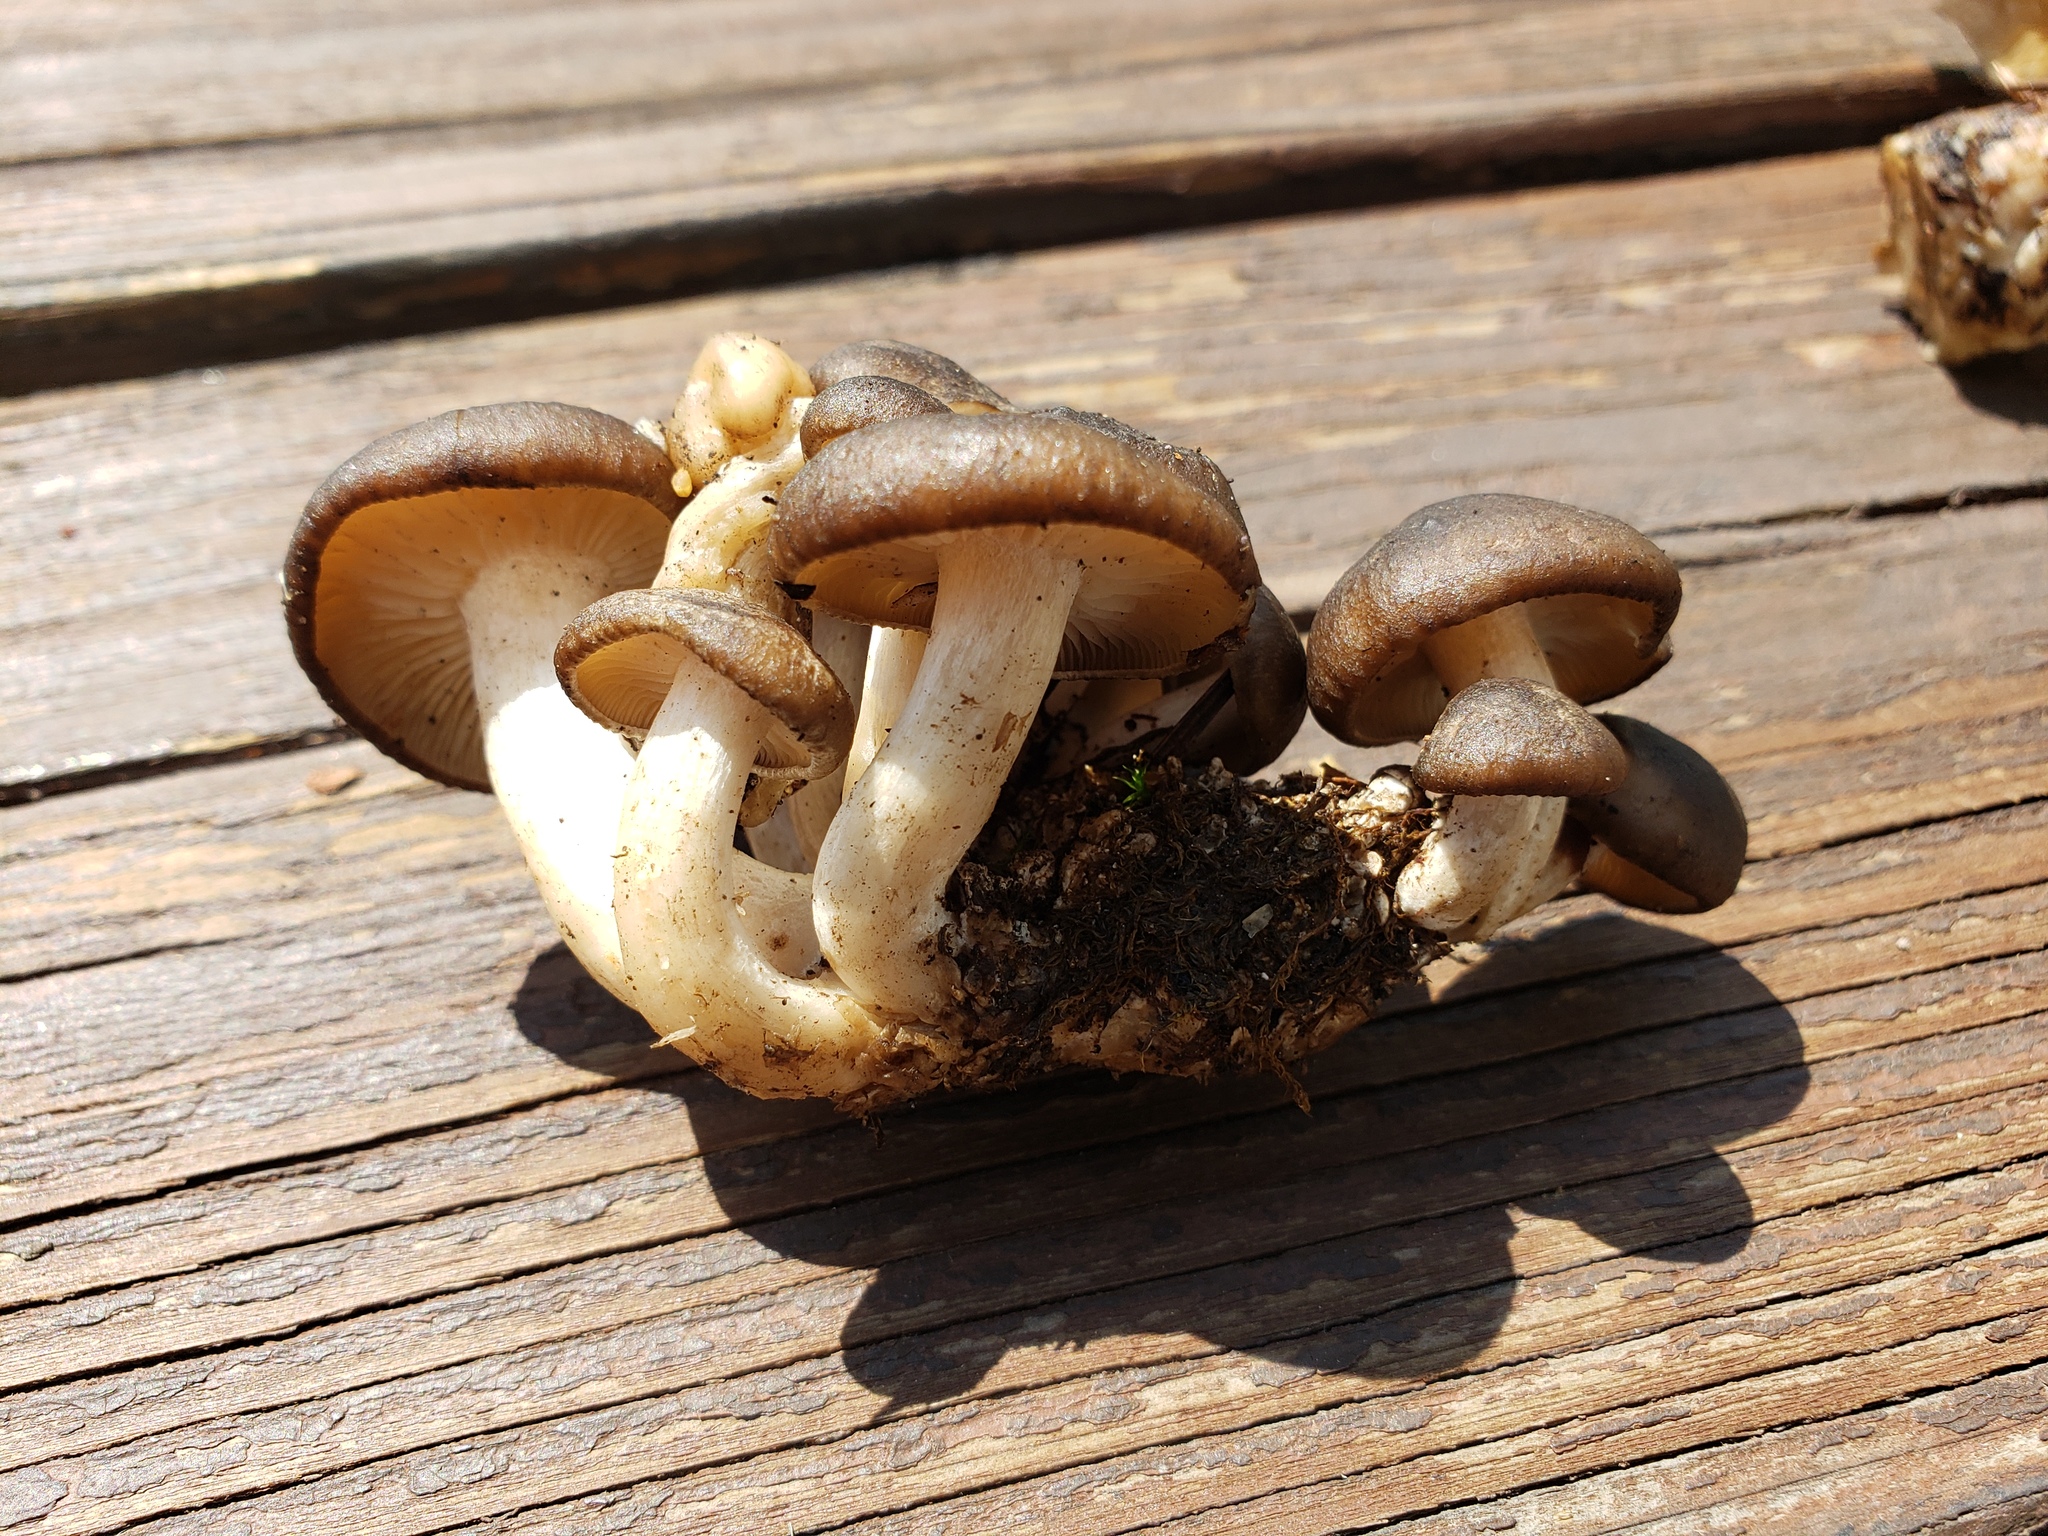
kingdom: Fungi
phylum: Basidiomycota
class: Agaricomycetes
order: Agaricales
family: Lyophyllaceae
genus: Lyophyllum
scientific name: Lyophyllum decastes
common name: Clustered domecap
